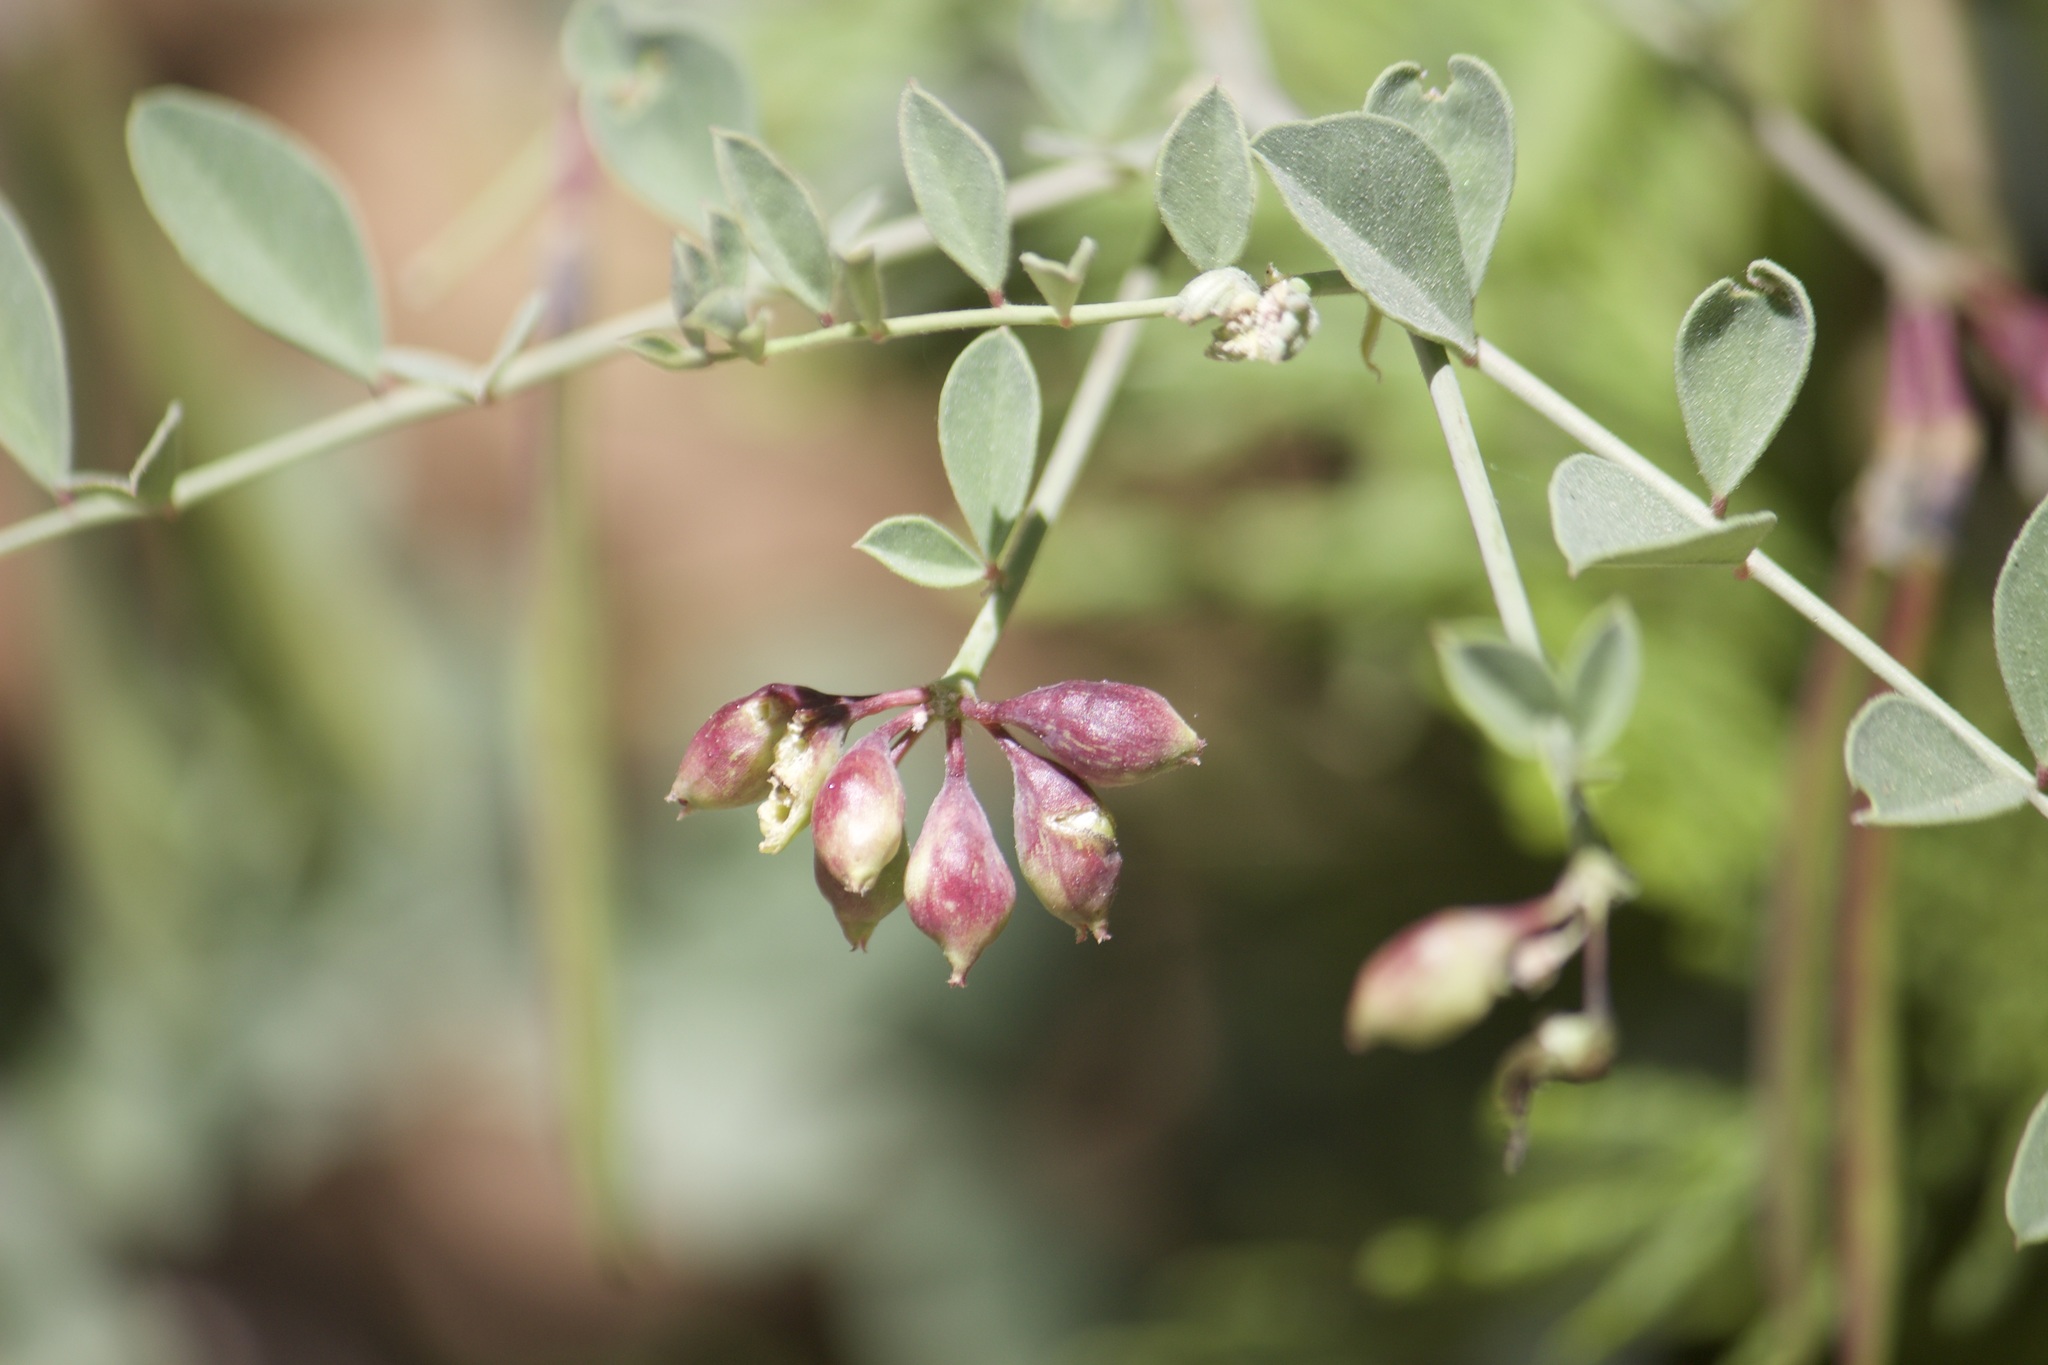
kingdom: Plantae
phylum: Tracheophyta
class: Magnoliopsida
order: Fabales
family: Fabaceae
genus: Hosackia
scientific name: Hosackia crassifolia
